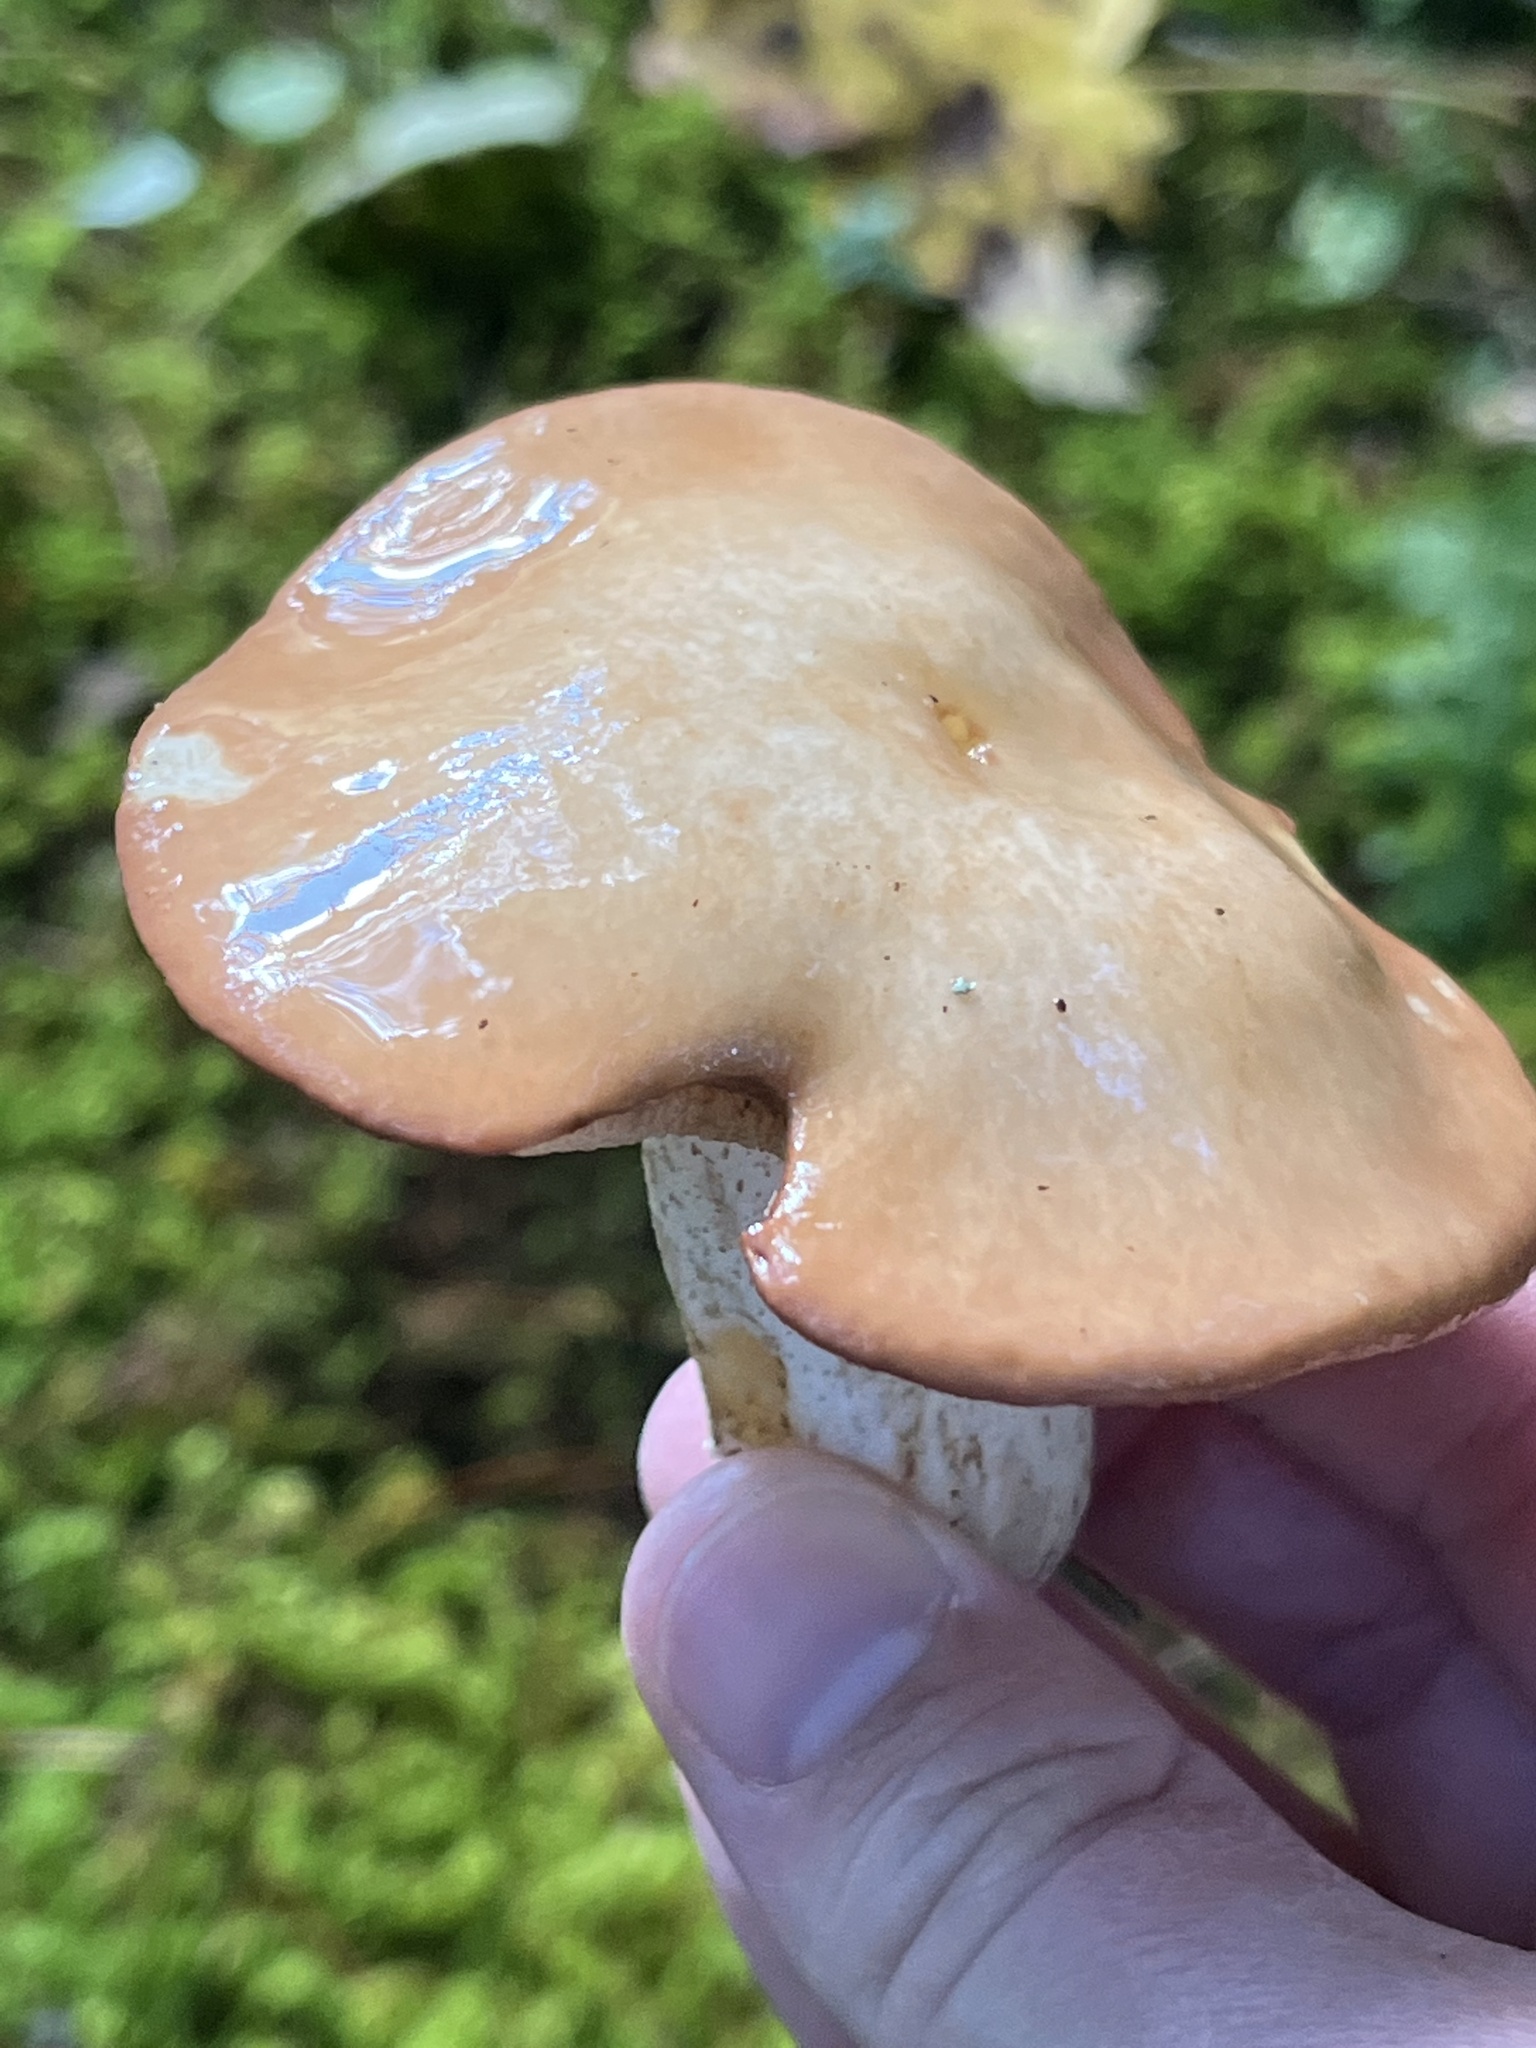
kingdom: Fungi
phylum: Basidiomycota
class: Agaricomycetes
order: Boletales
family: Suillaceae
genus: Fuscoboletinus
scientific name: Fuscoboletinus weaverae
